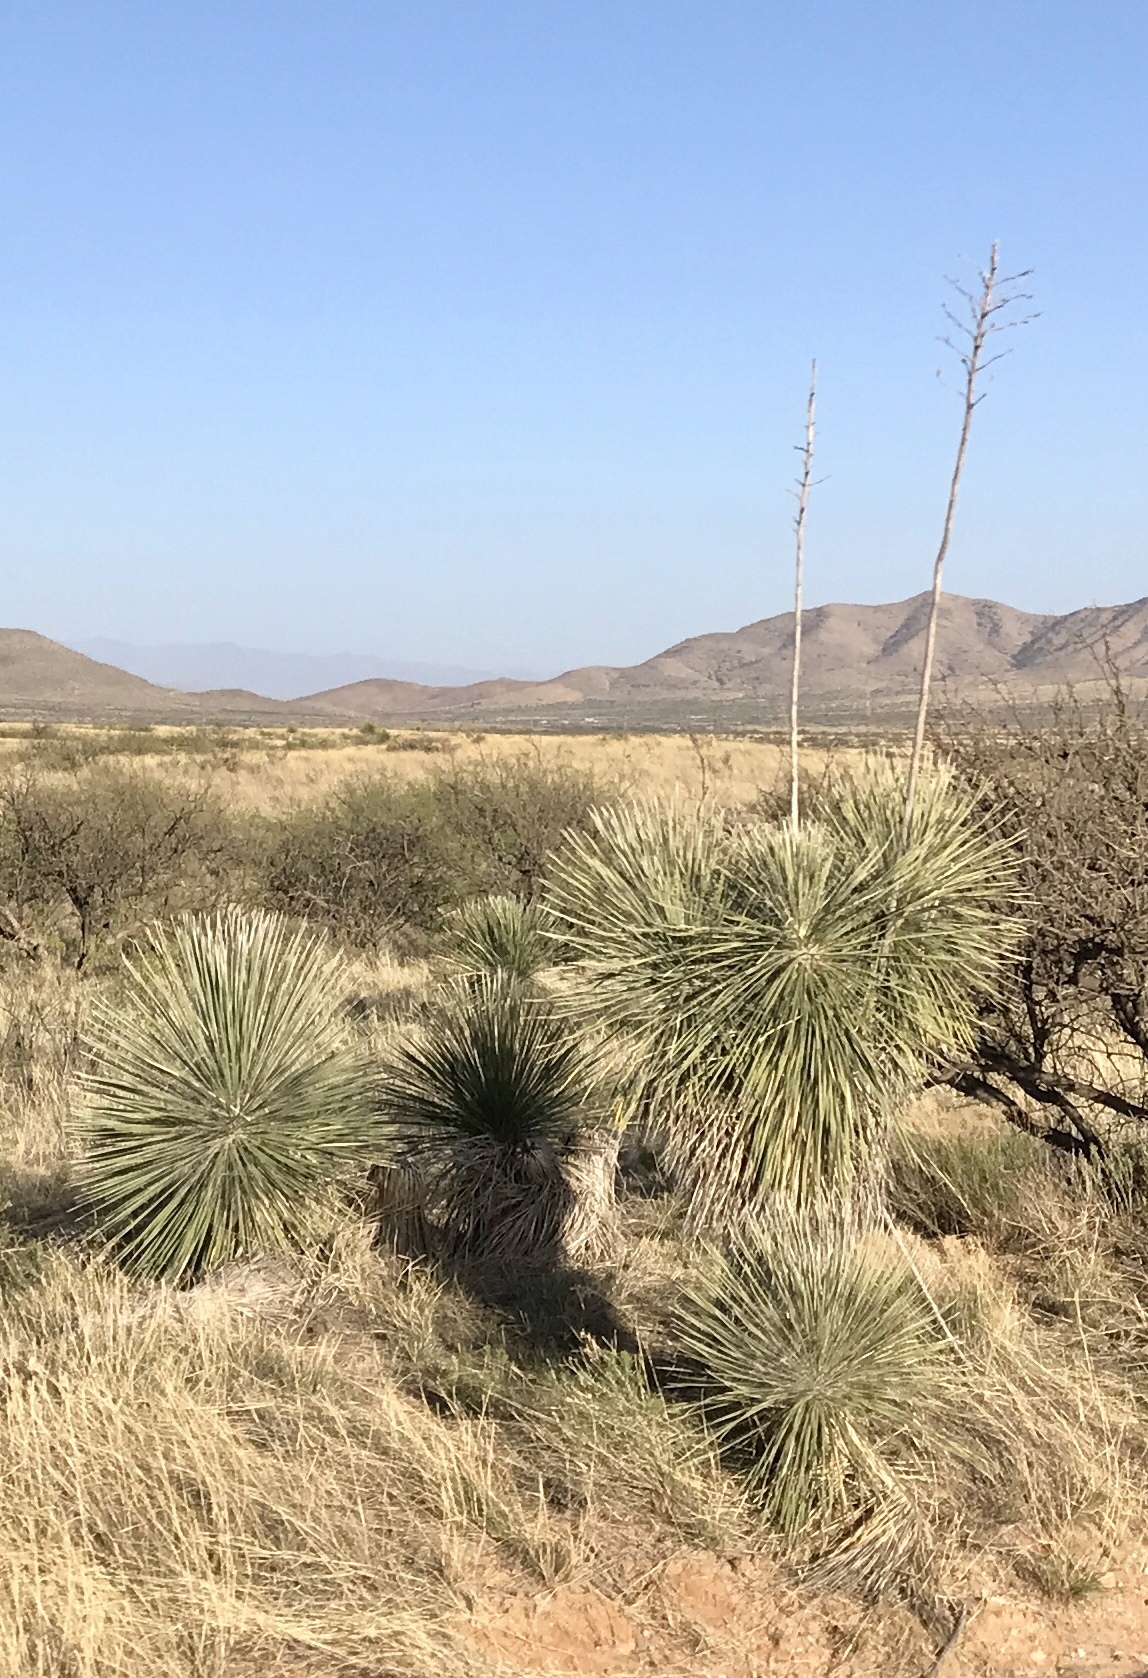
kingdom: Plantae
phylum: Tracheophyta
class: Liliopsida
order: Asparagales
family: Asparagaceae
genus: Yucca
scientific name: Yucca elata
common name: Palmella
